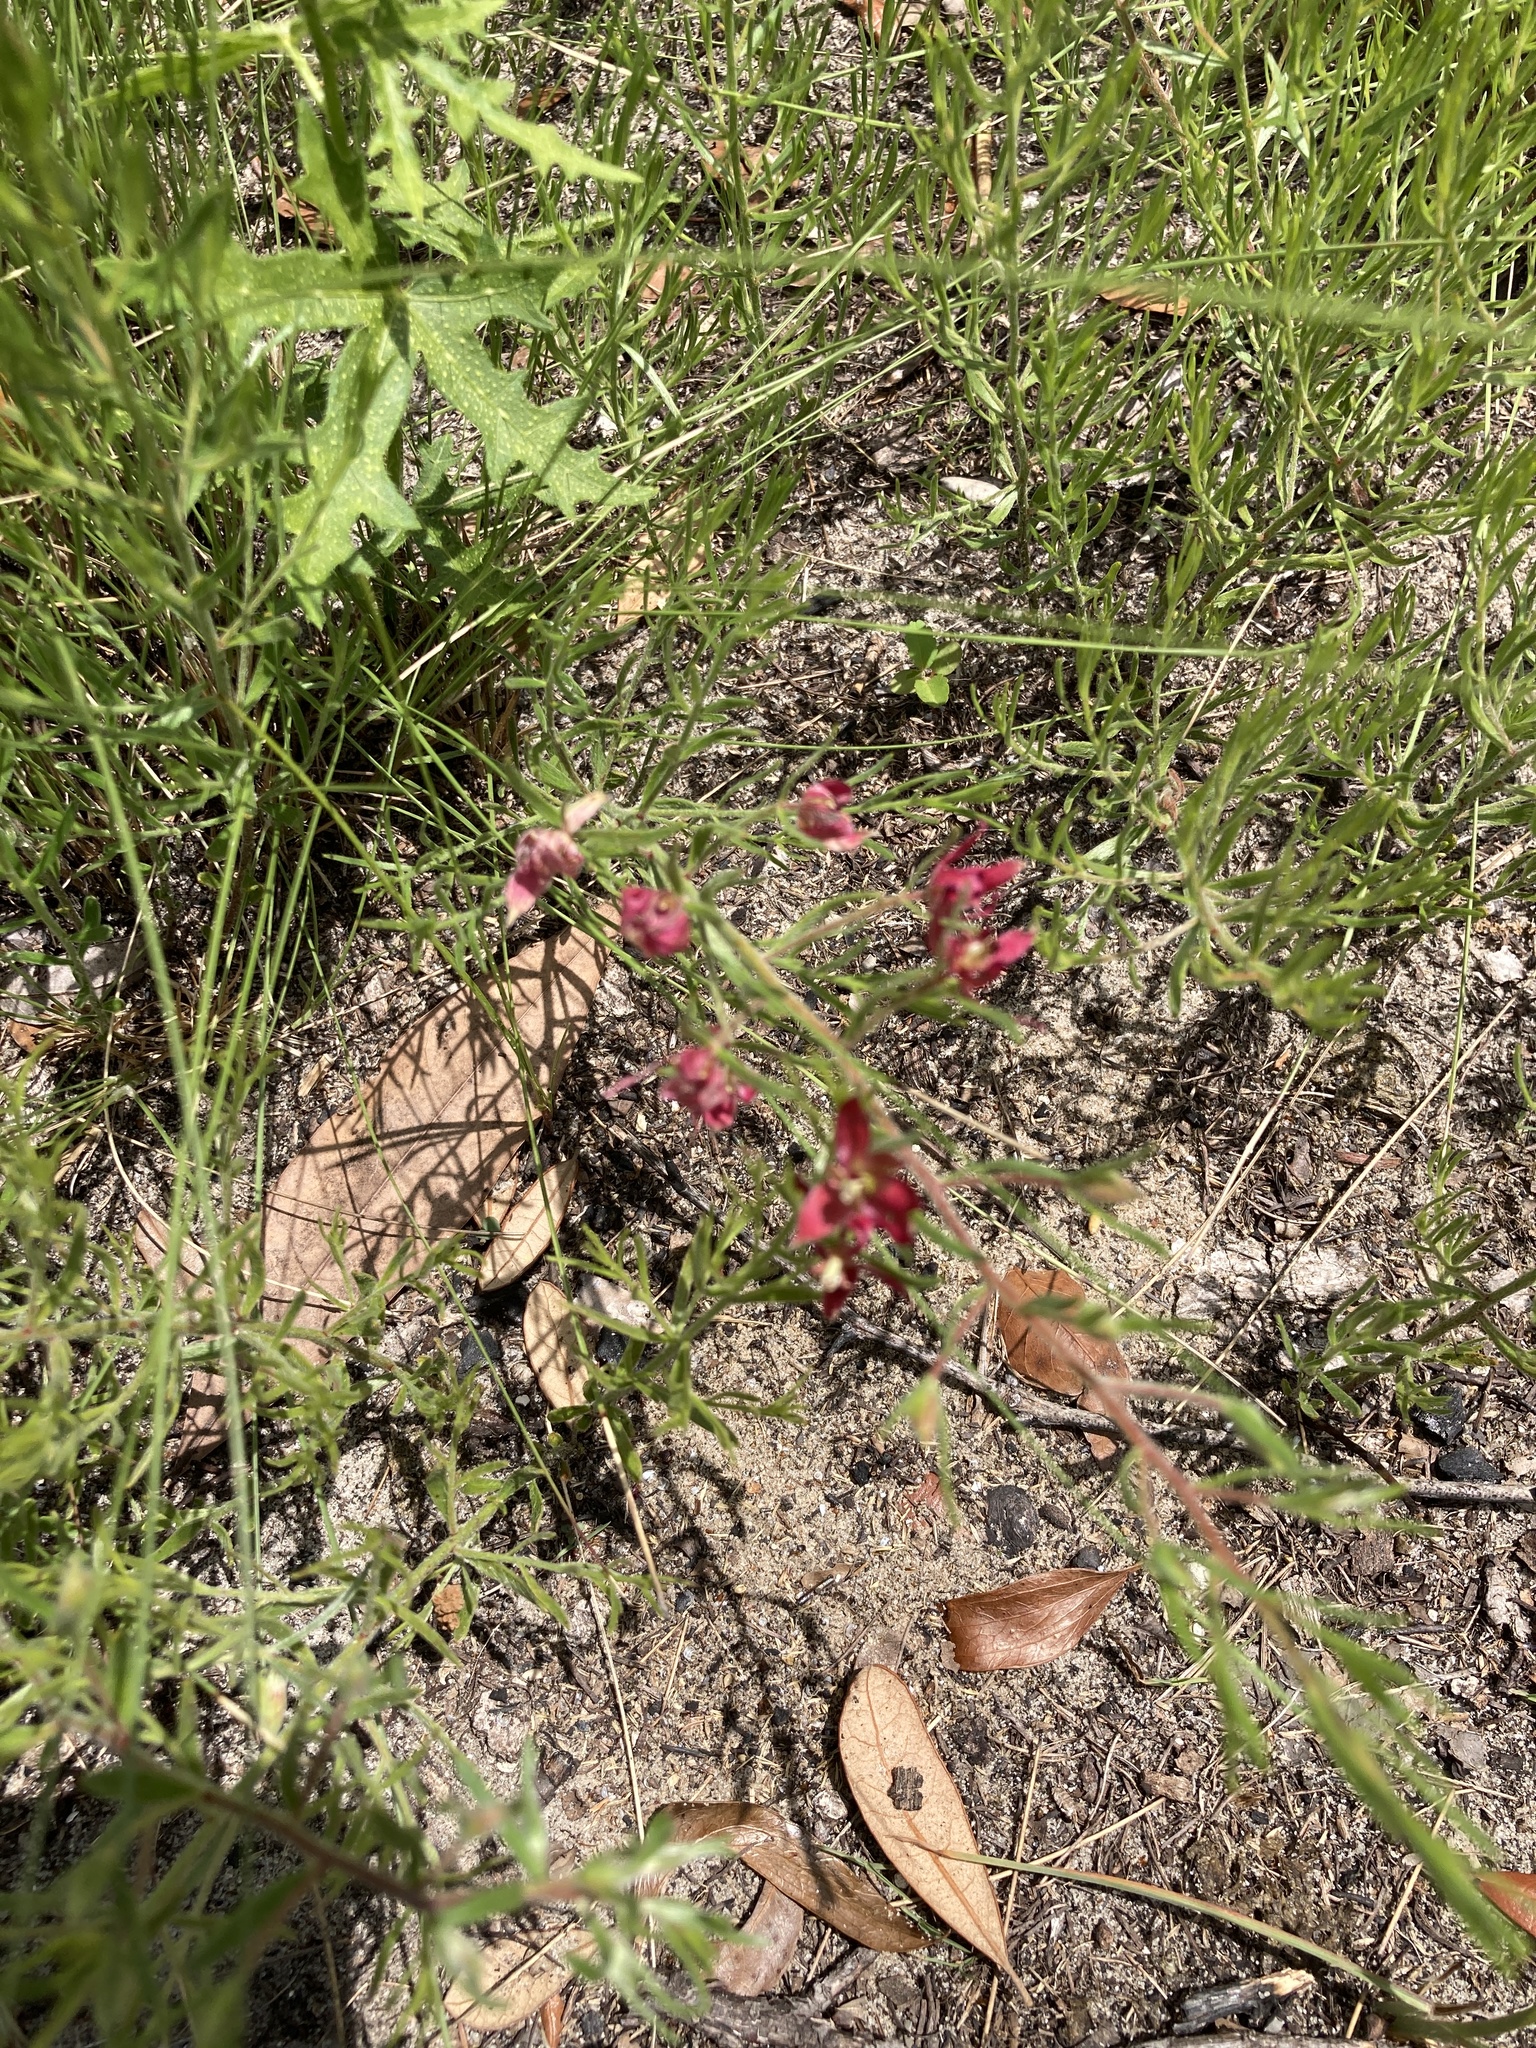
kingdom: Plantae
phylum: Tracheophyta
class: Magnoliopsida
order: Zygophyllales
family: Krameriaceae
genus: Krameria
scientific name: Krameria lanceolata
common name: Ratany
